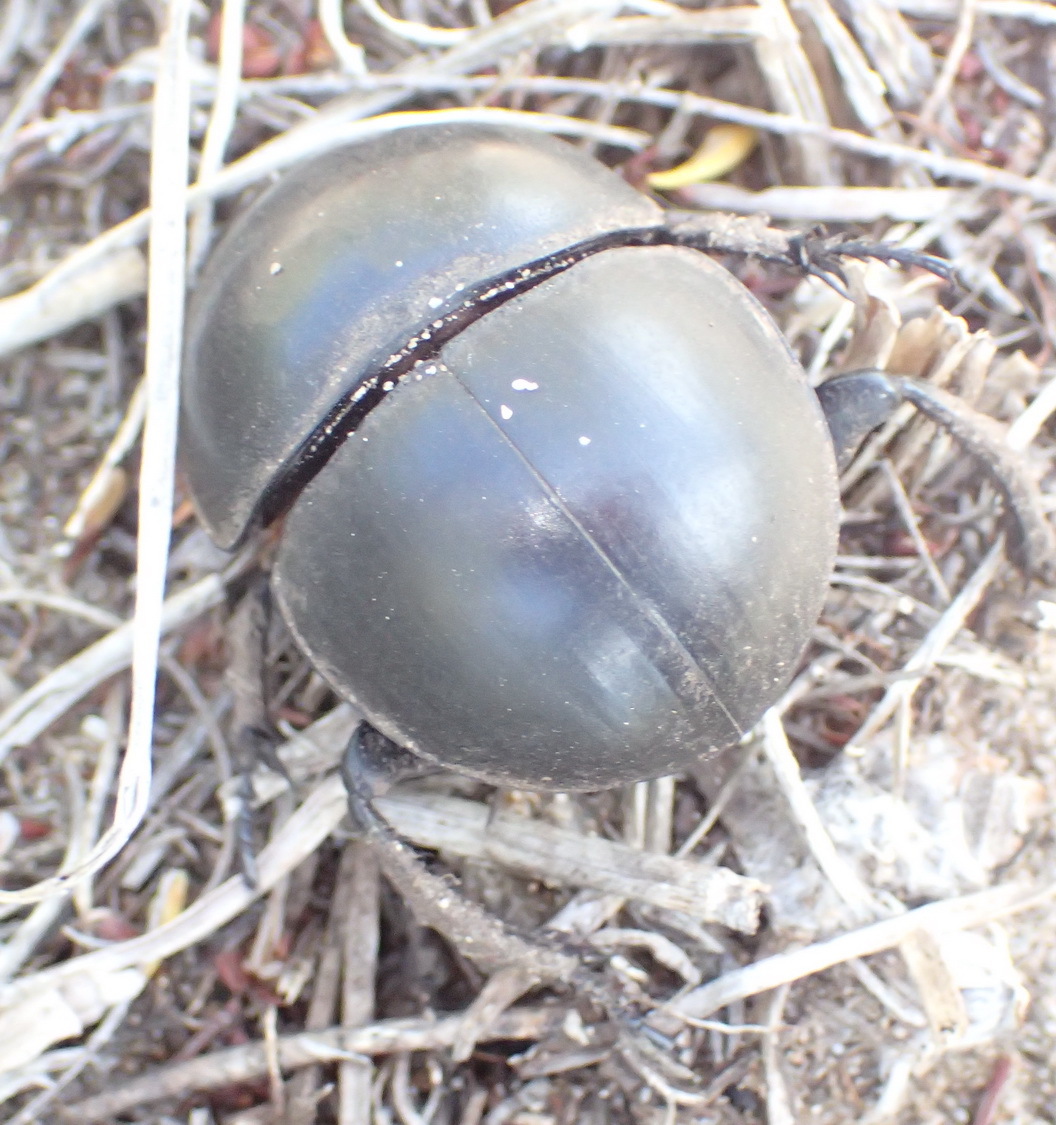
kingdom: Animalia
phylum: Arthropoda
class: Insecta
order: Coleoptera
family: Scarabaeidae
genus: Circellium
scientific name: Circellium bacchus
